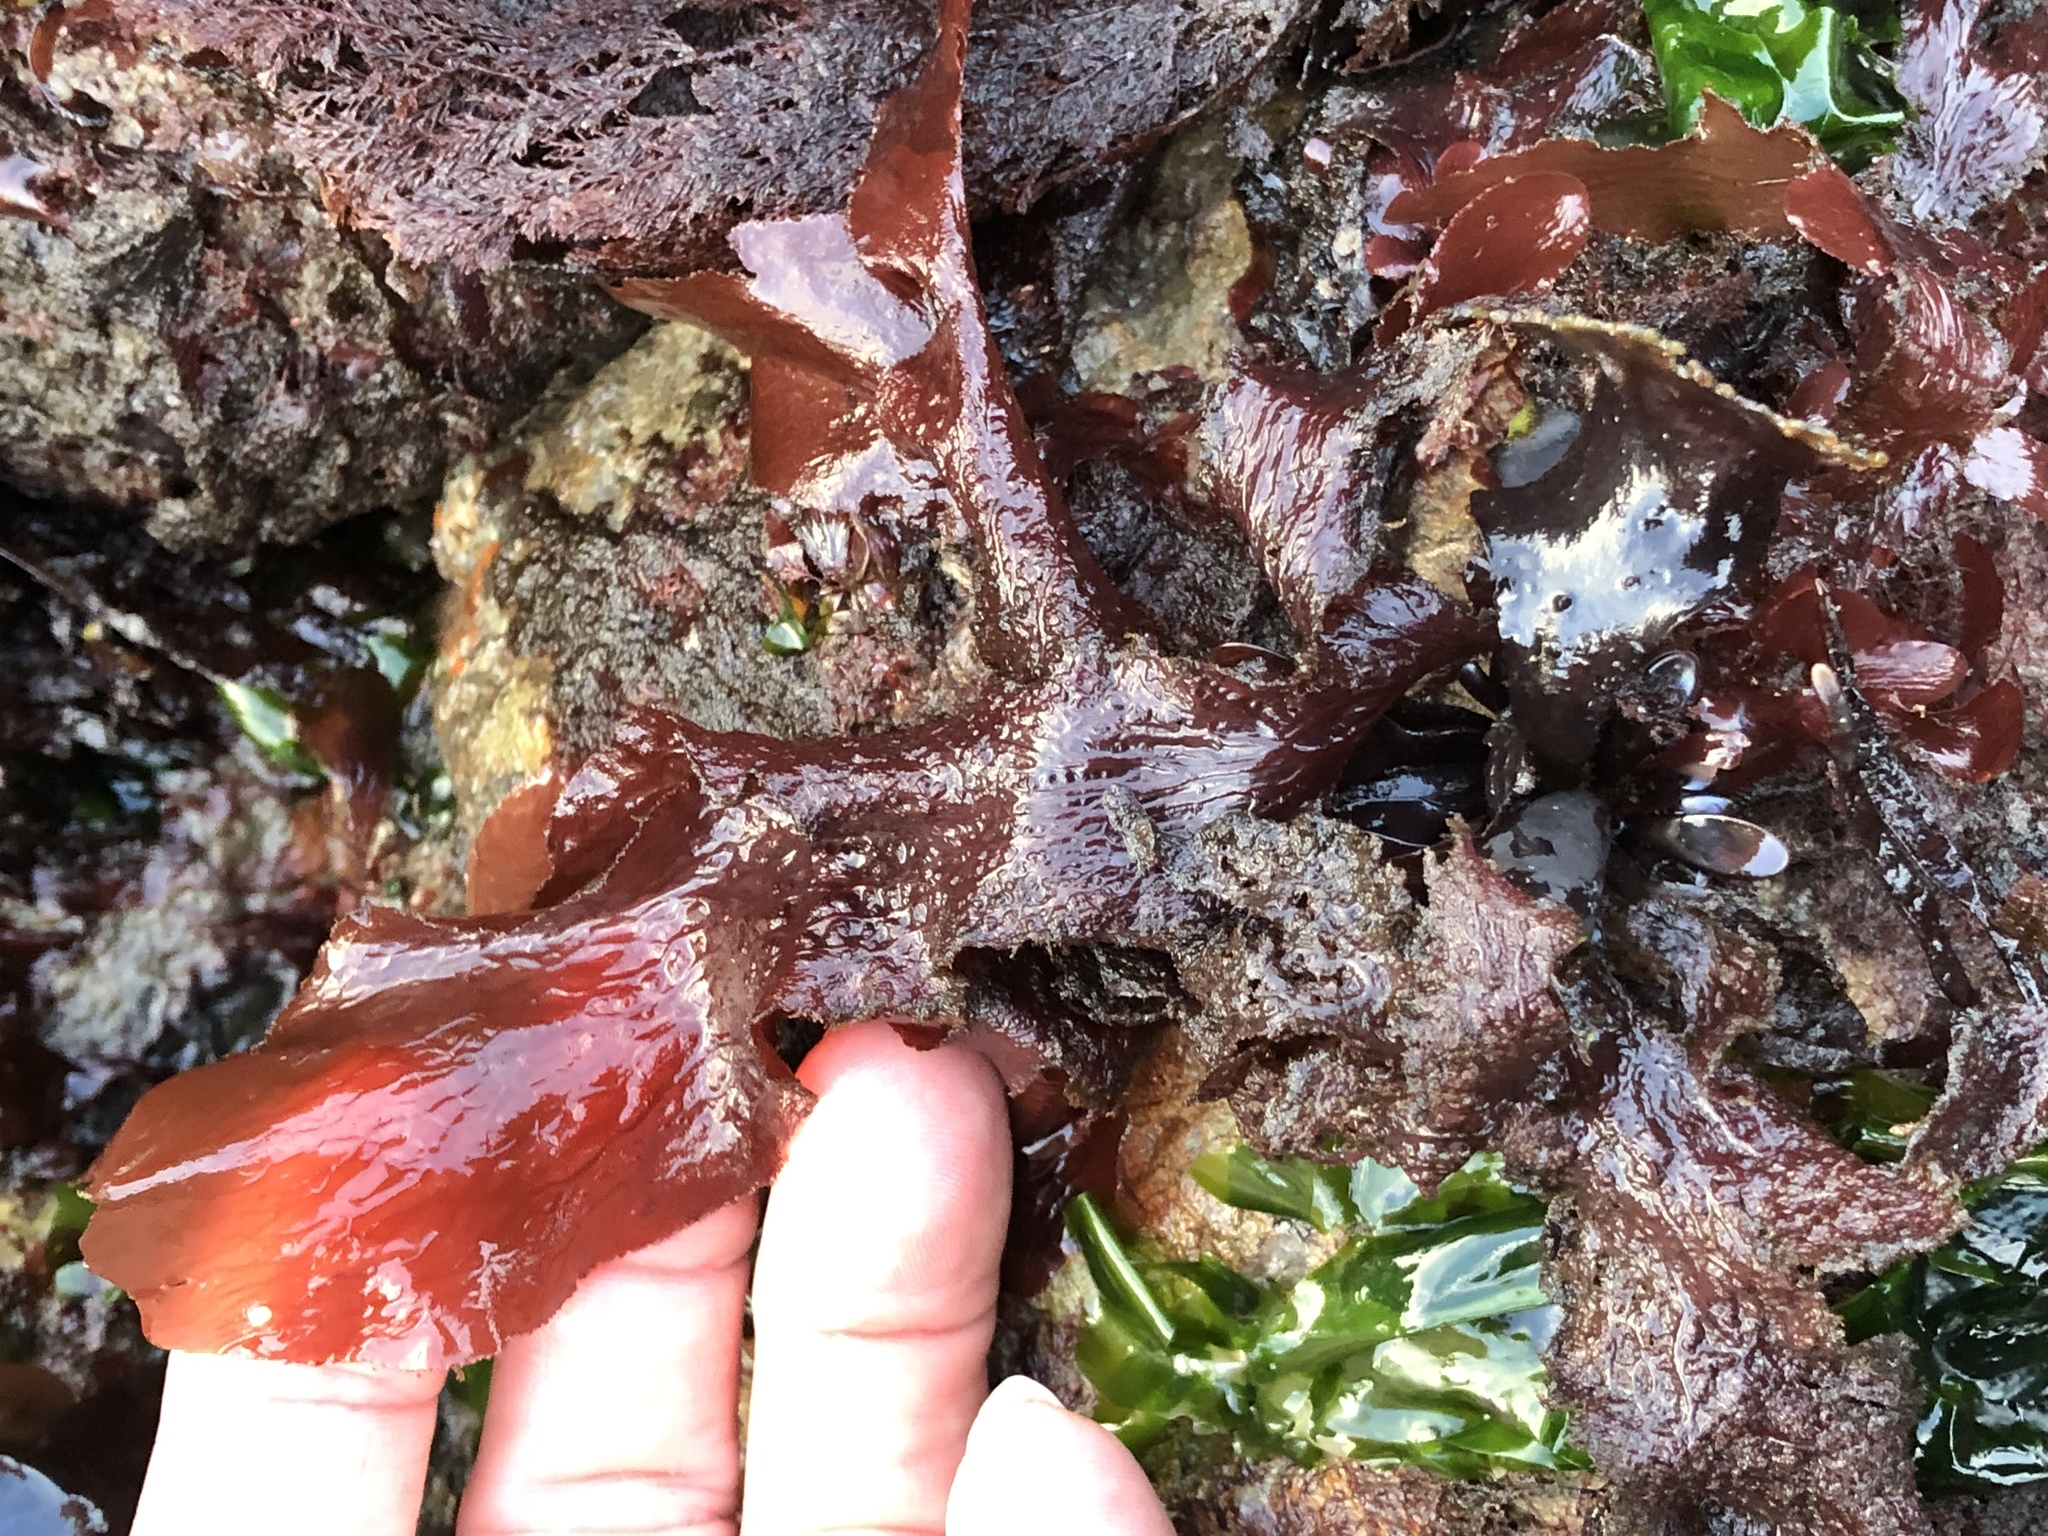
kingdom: Plantae
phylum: Rhodophyta
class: Florideophyceae
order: Ceramiales
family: Delesseriaceae
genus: Polyneura
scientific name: Polyneura latissima
